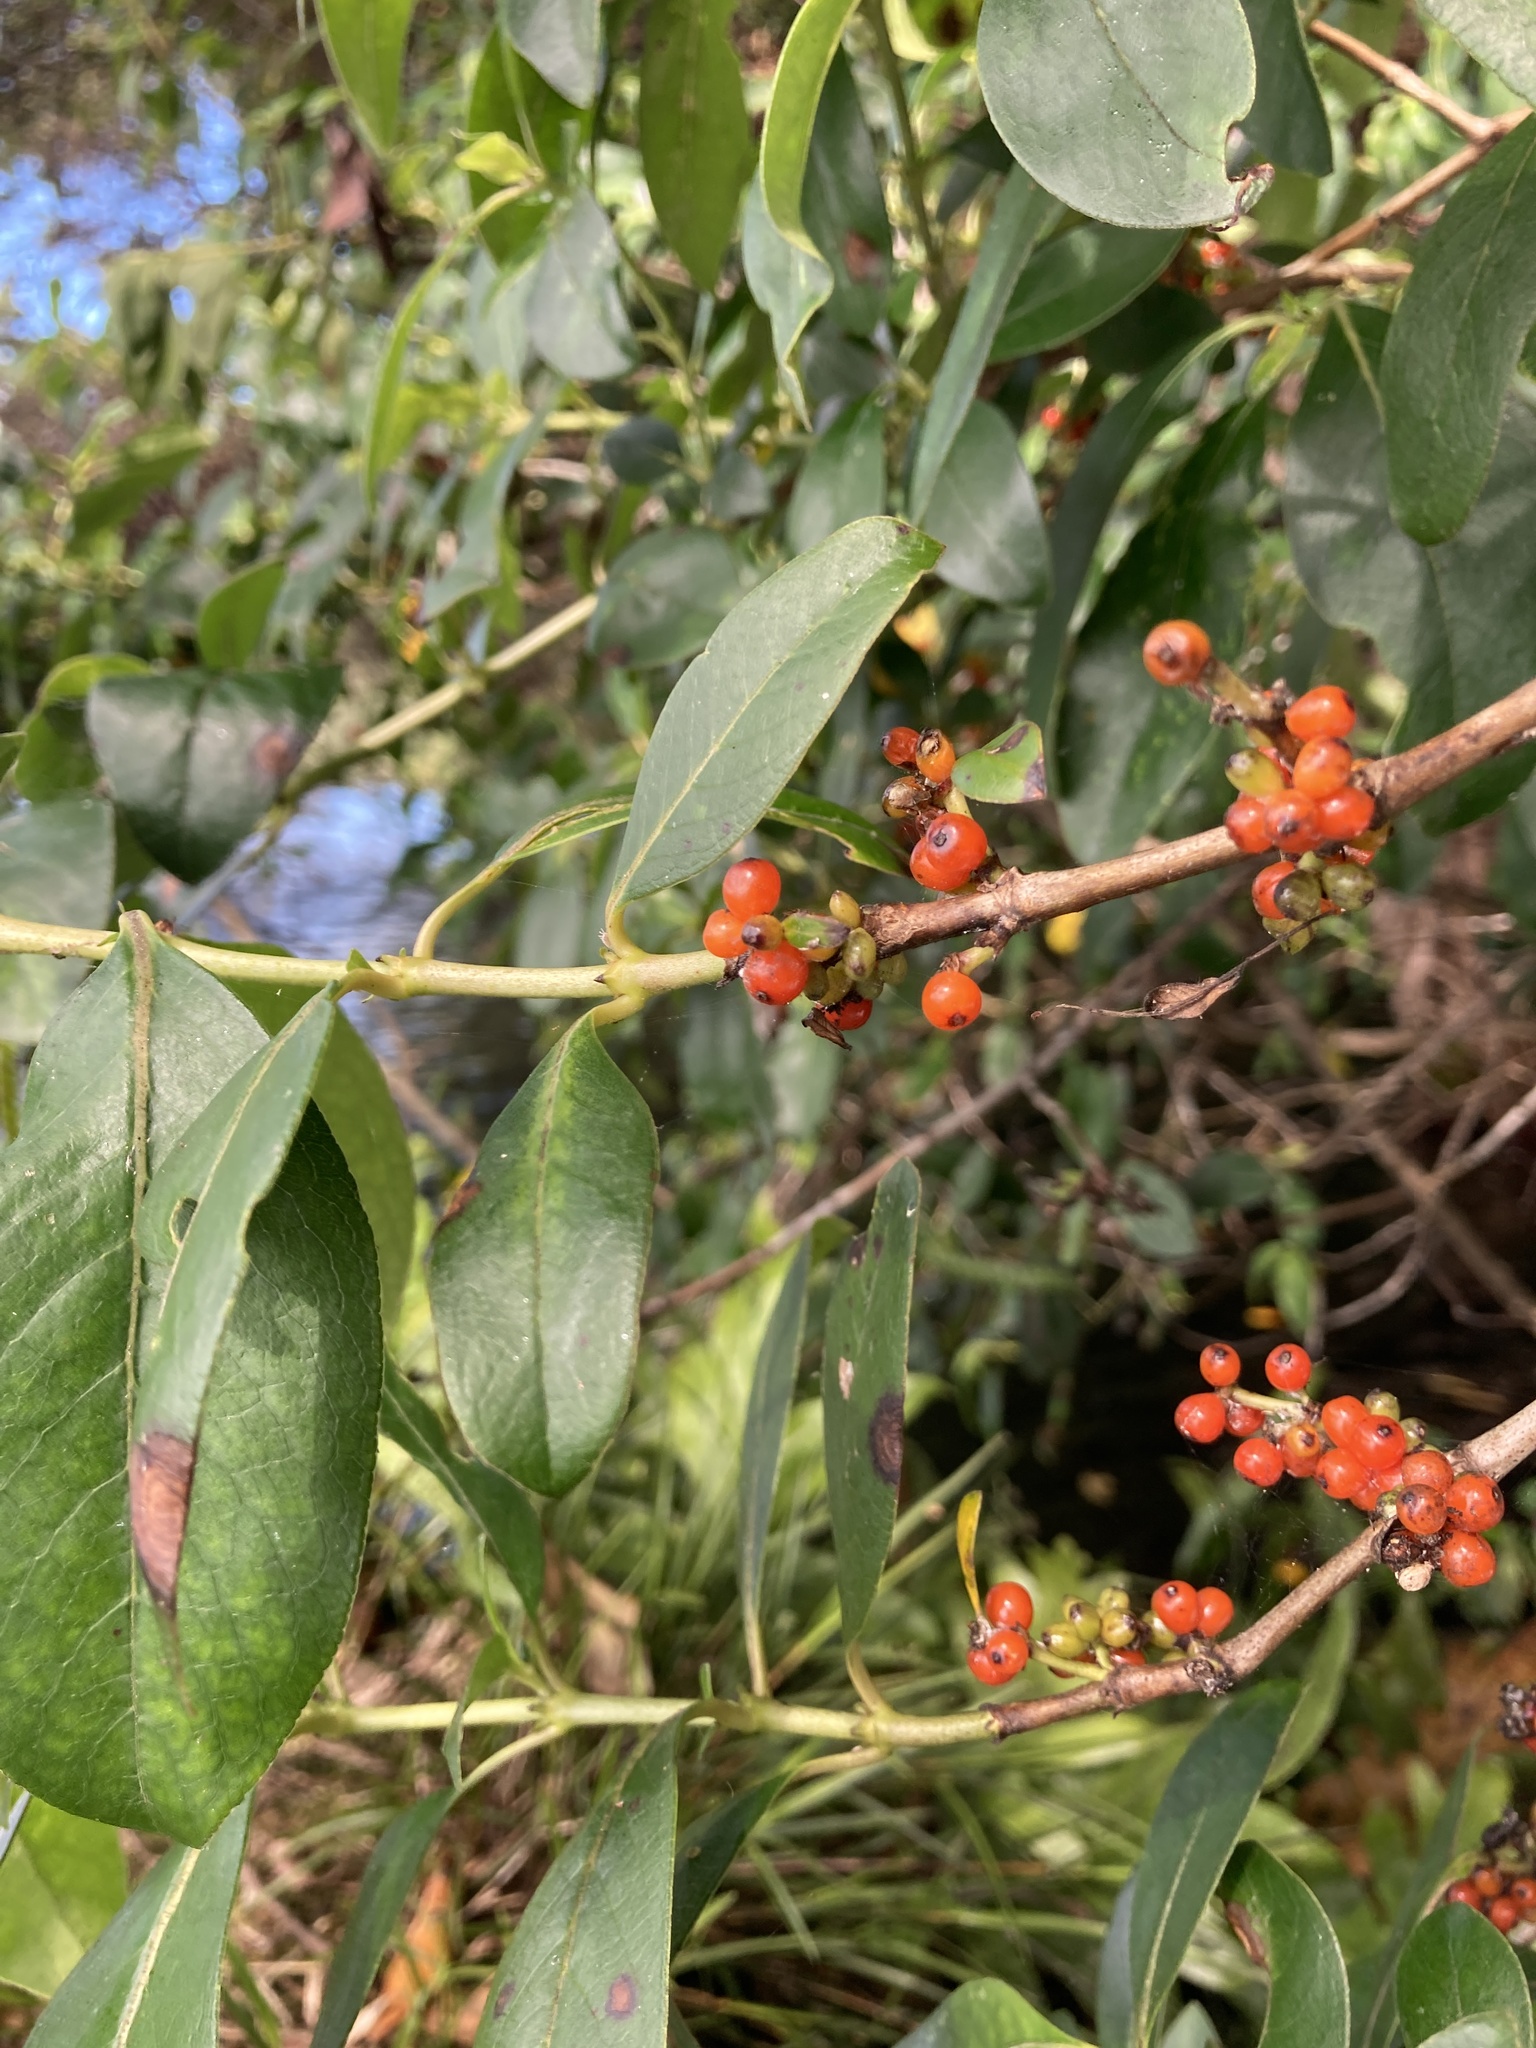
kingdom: Plantae
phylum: Tracheophyta
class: Magnoliopsida
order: Gentianales
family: Rubiaceae
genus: Coprosma
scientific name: Coprosma robusta
